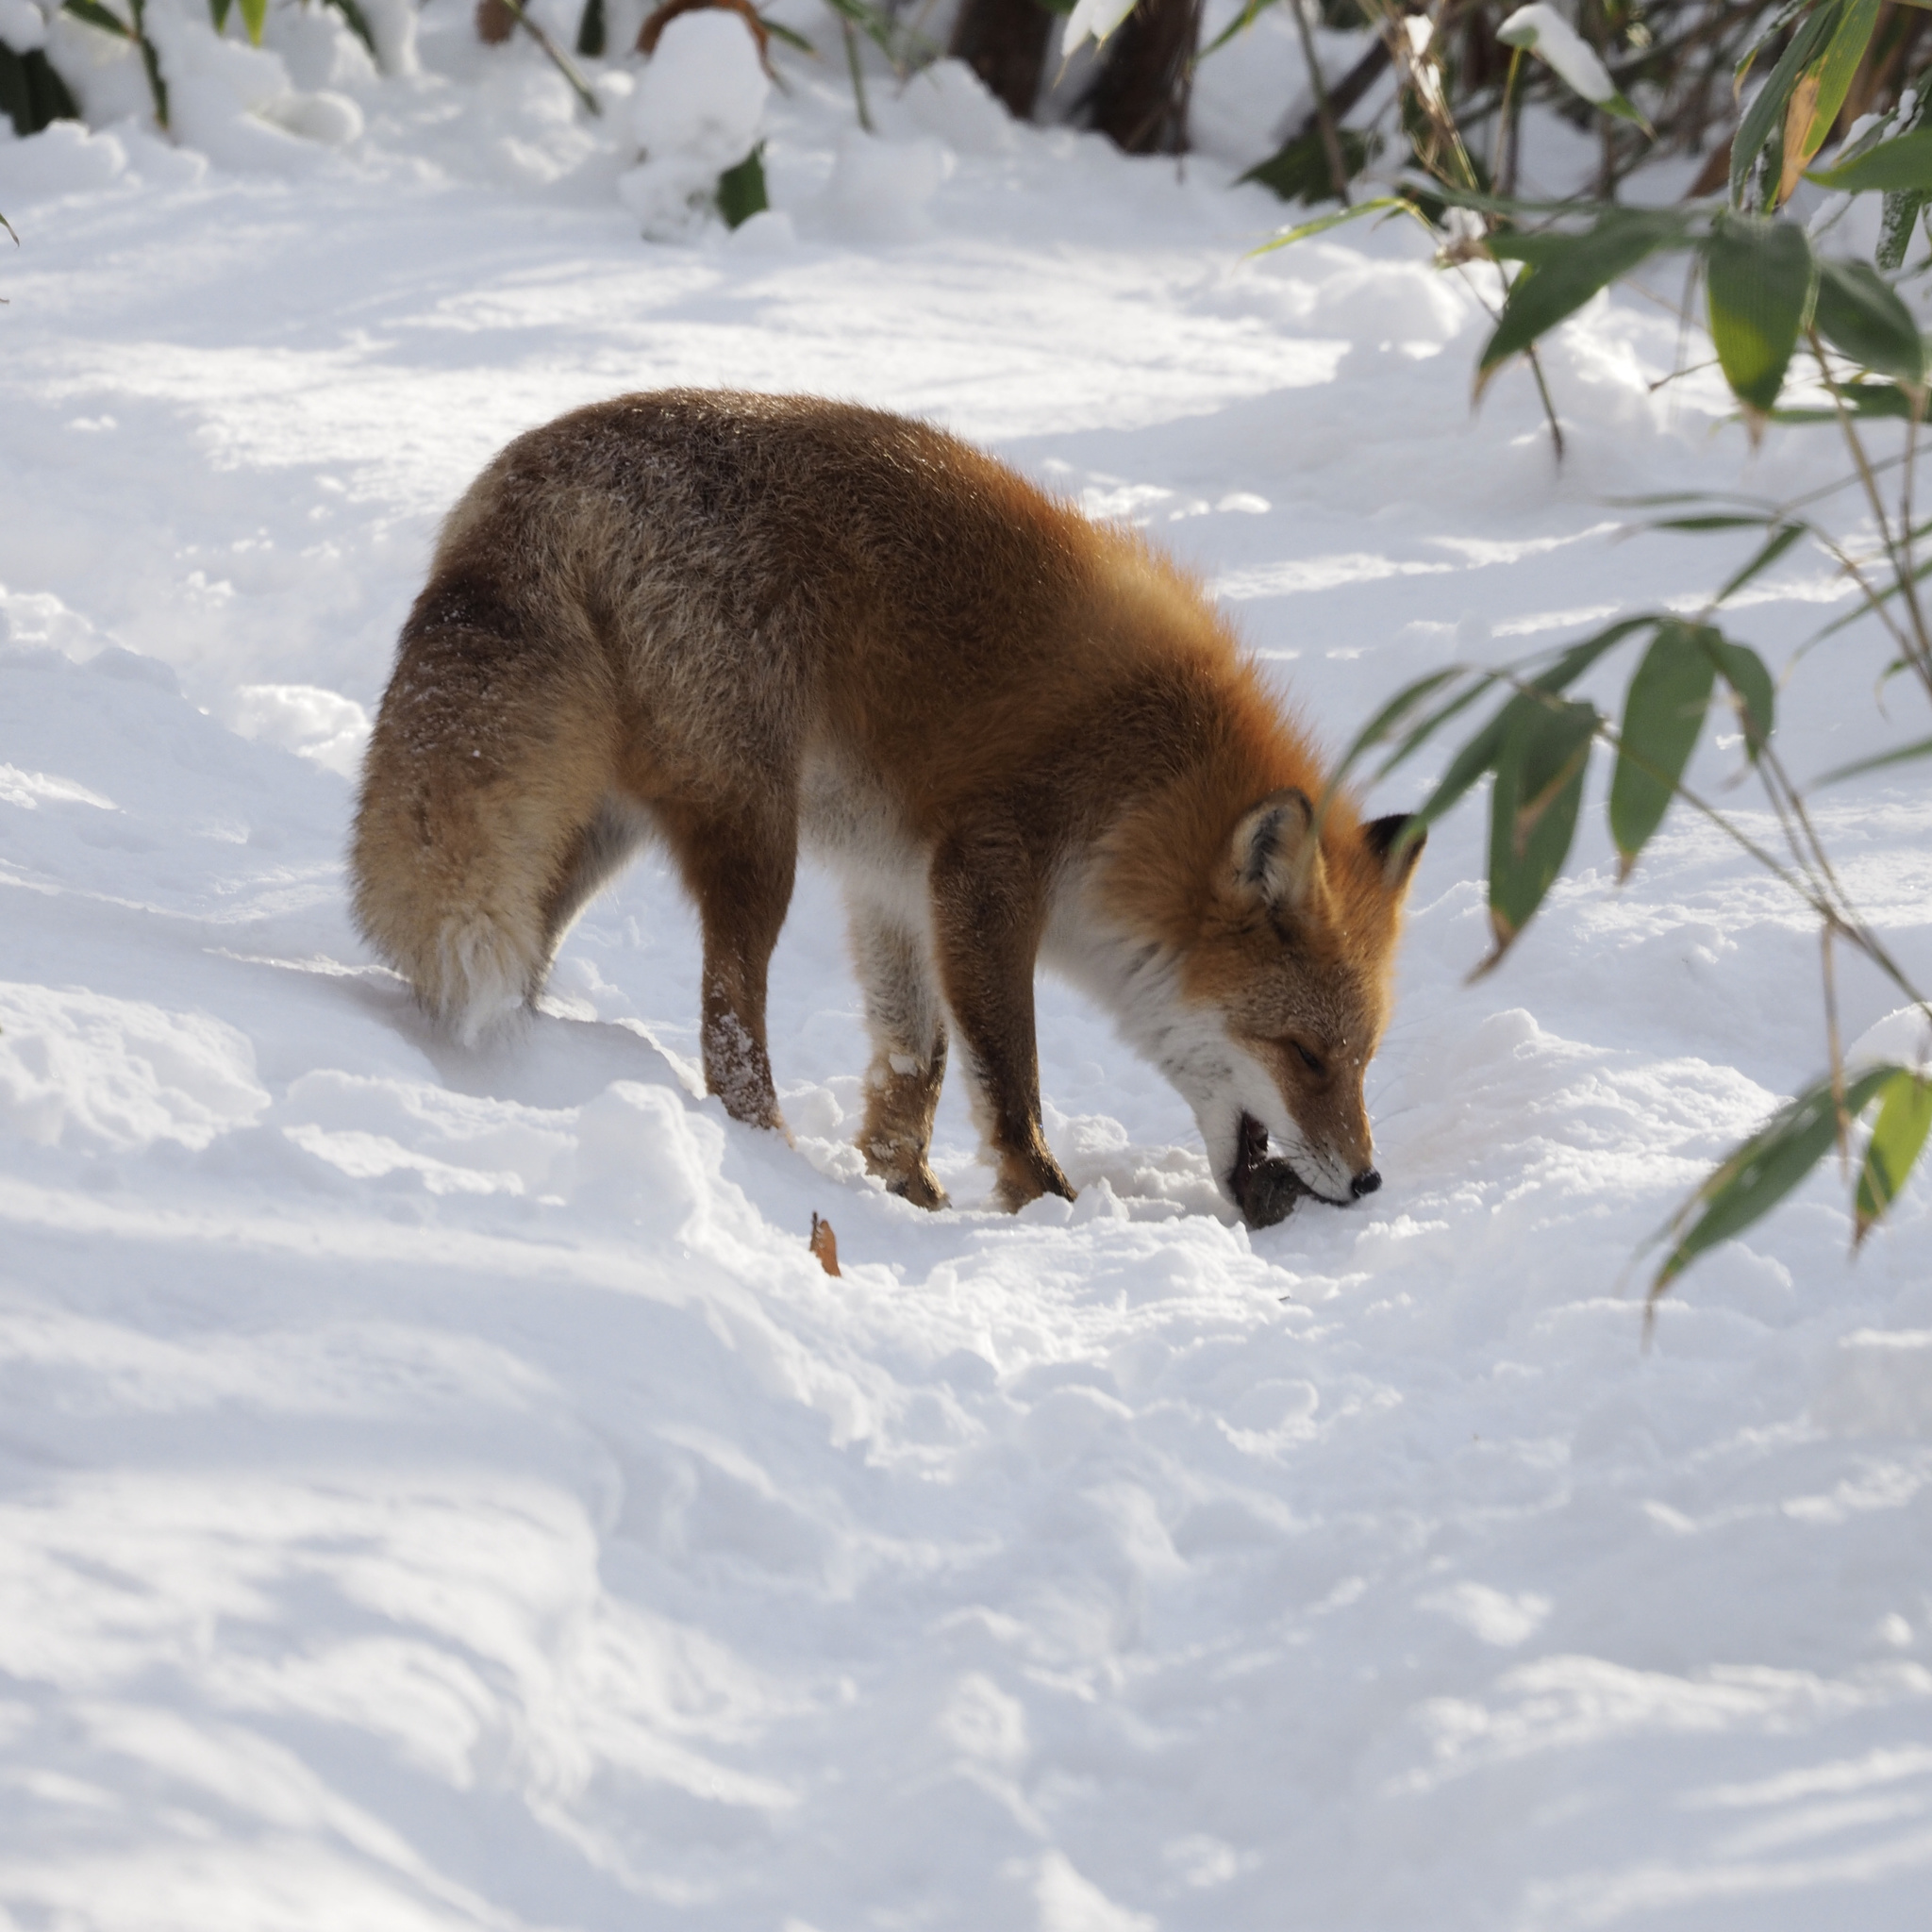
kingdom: Animalia
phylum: Chordata
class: Mammalia
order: Carnivora
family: Canidae
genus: Vulpes
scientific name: Vulpes vulpes
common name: Red fox
